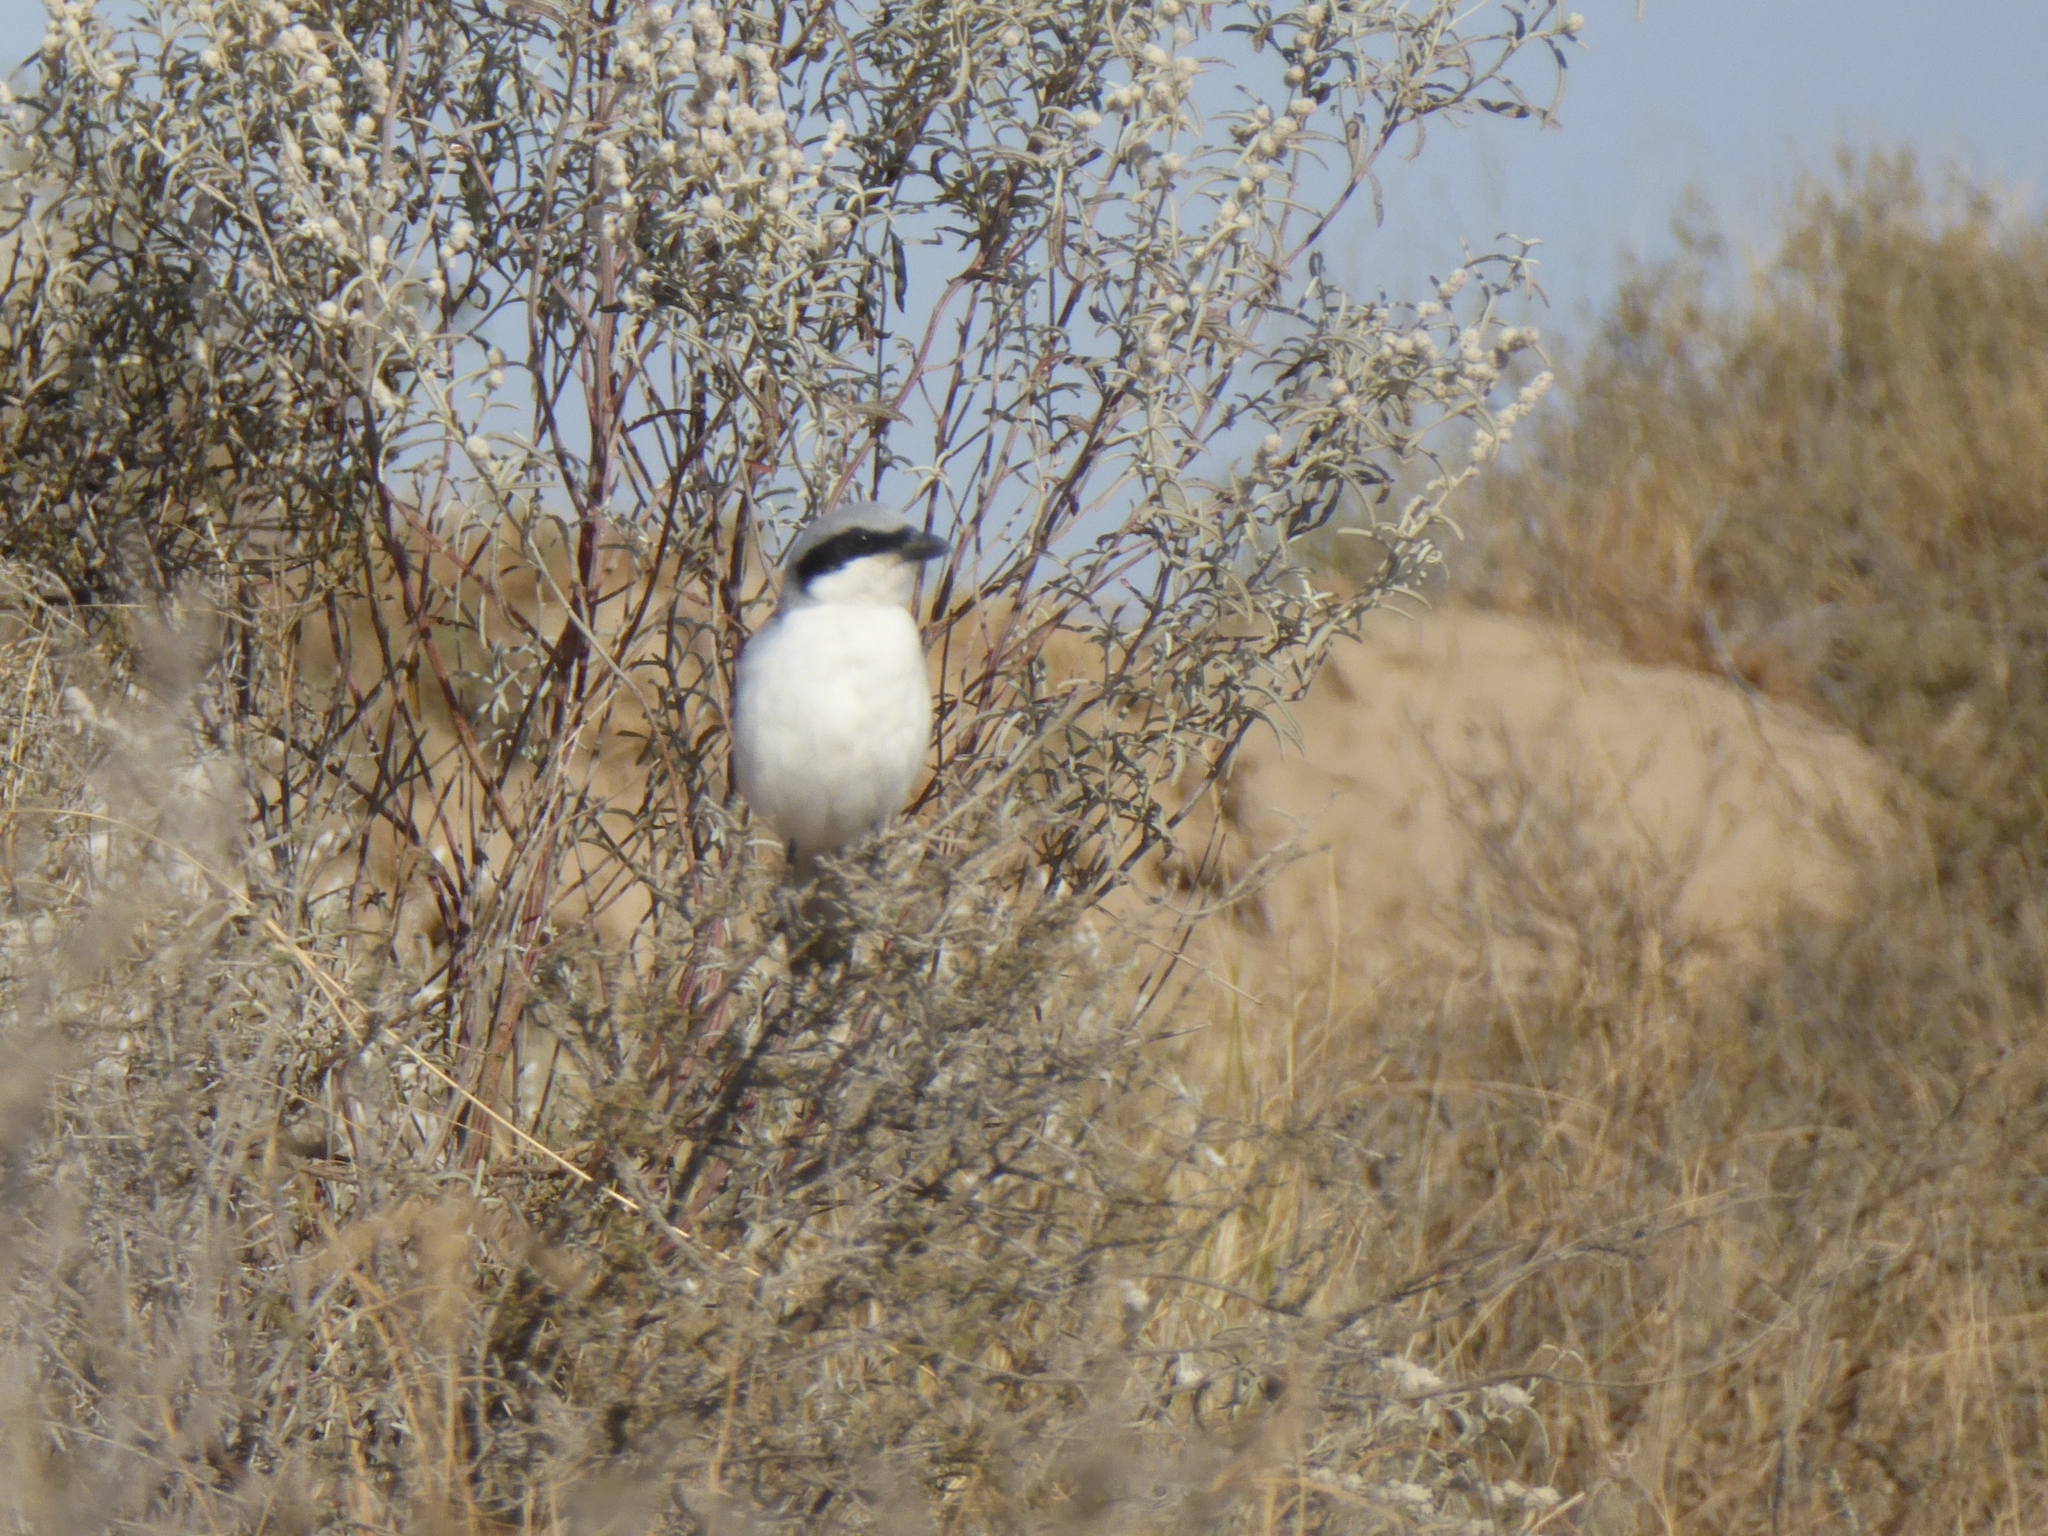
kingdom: Animalia
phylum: Chordata
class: Aves
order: Passeriformes
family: Laniidae
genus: Lanius
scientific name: Lanius excubitor
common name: Great grey shrike
